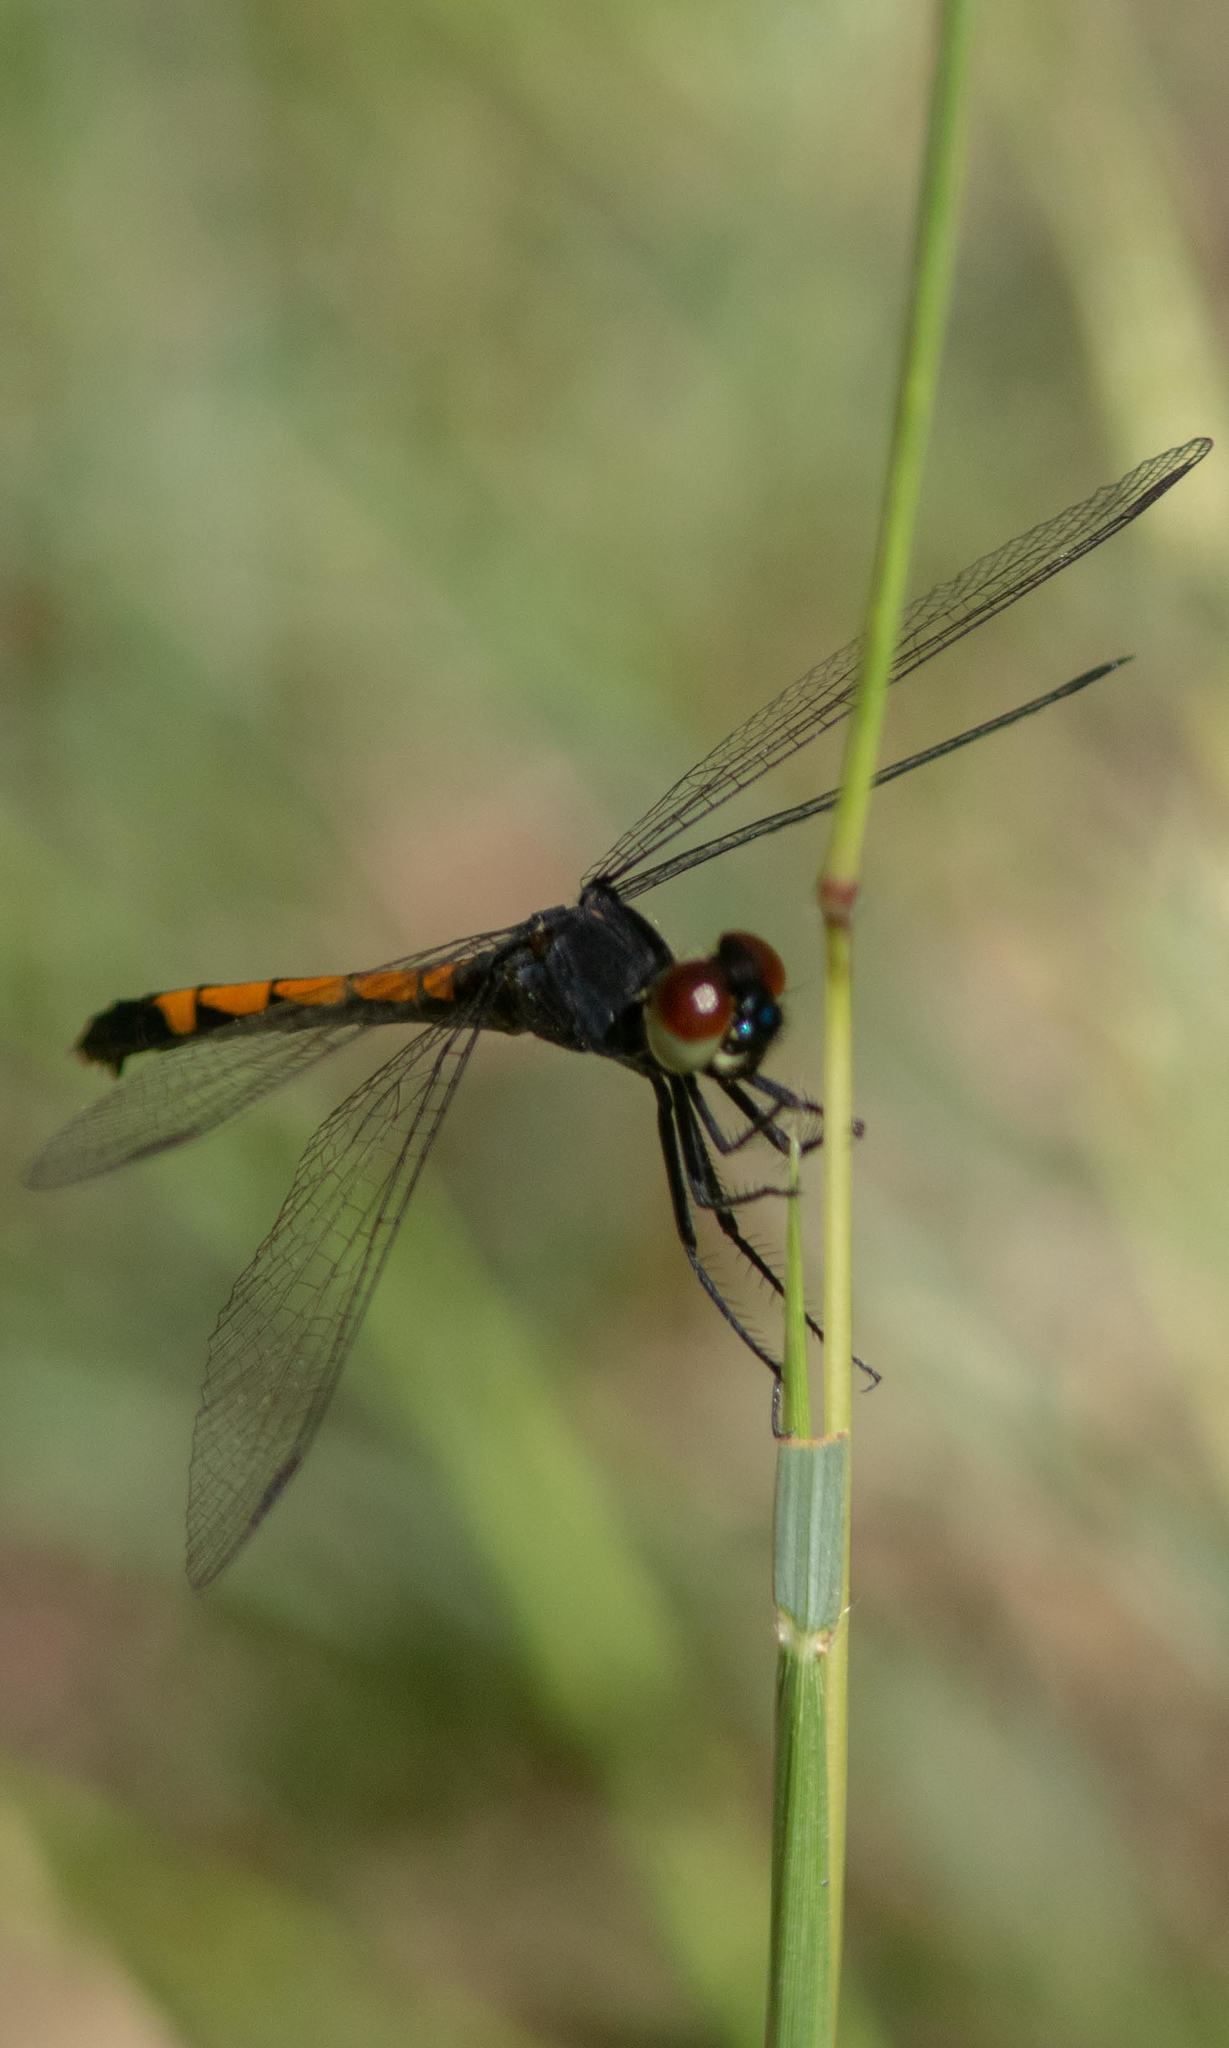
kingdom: Animalia
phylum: Arthropoda
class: Insecta
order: Odonata
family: Libellulidae
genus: Erythrodiplax
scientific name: Erythrodiplax berenice
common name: Seaside dragonlet
